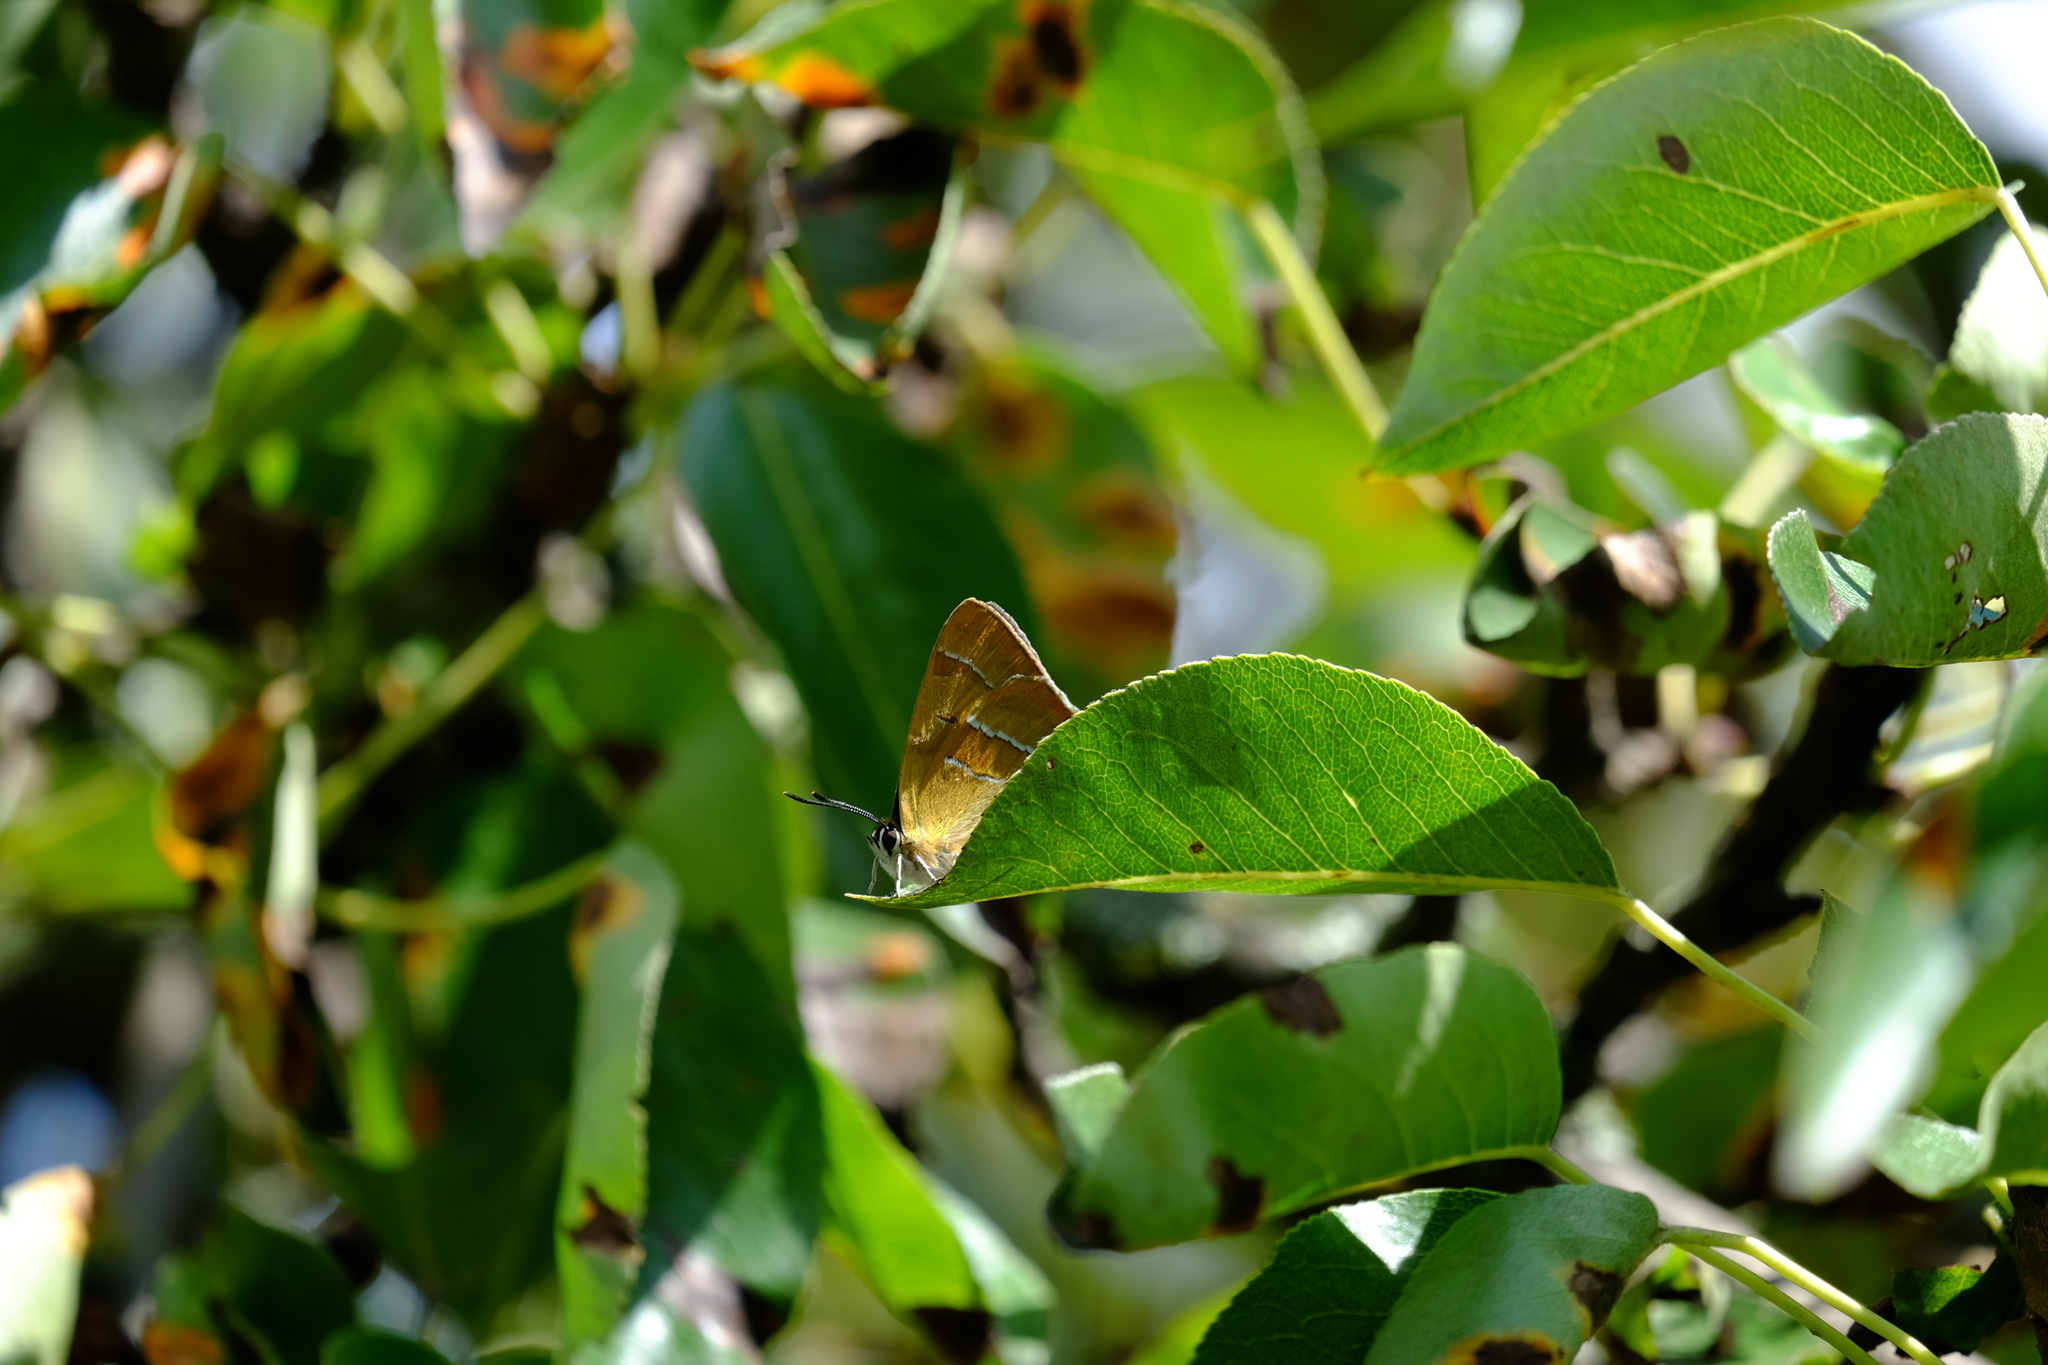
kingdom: Animalia
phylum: Arthropoda
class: Insecta
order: Lepidoptera
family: Lycaenidae
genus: Thecla
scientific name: Thecla betulae
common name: Brown hairstreak
